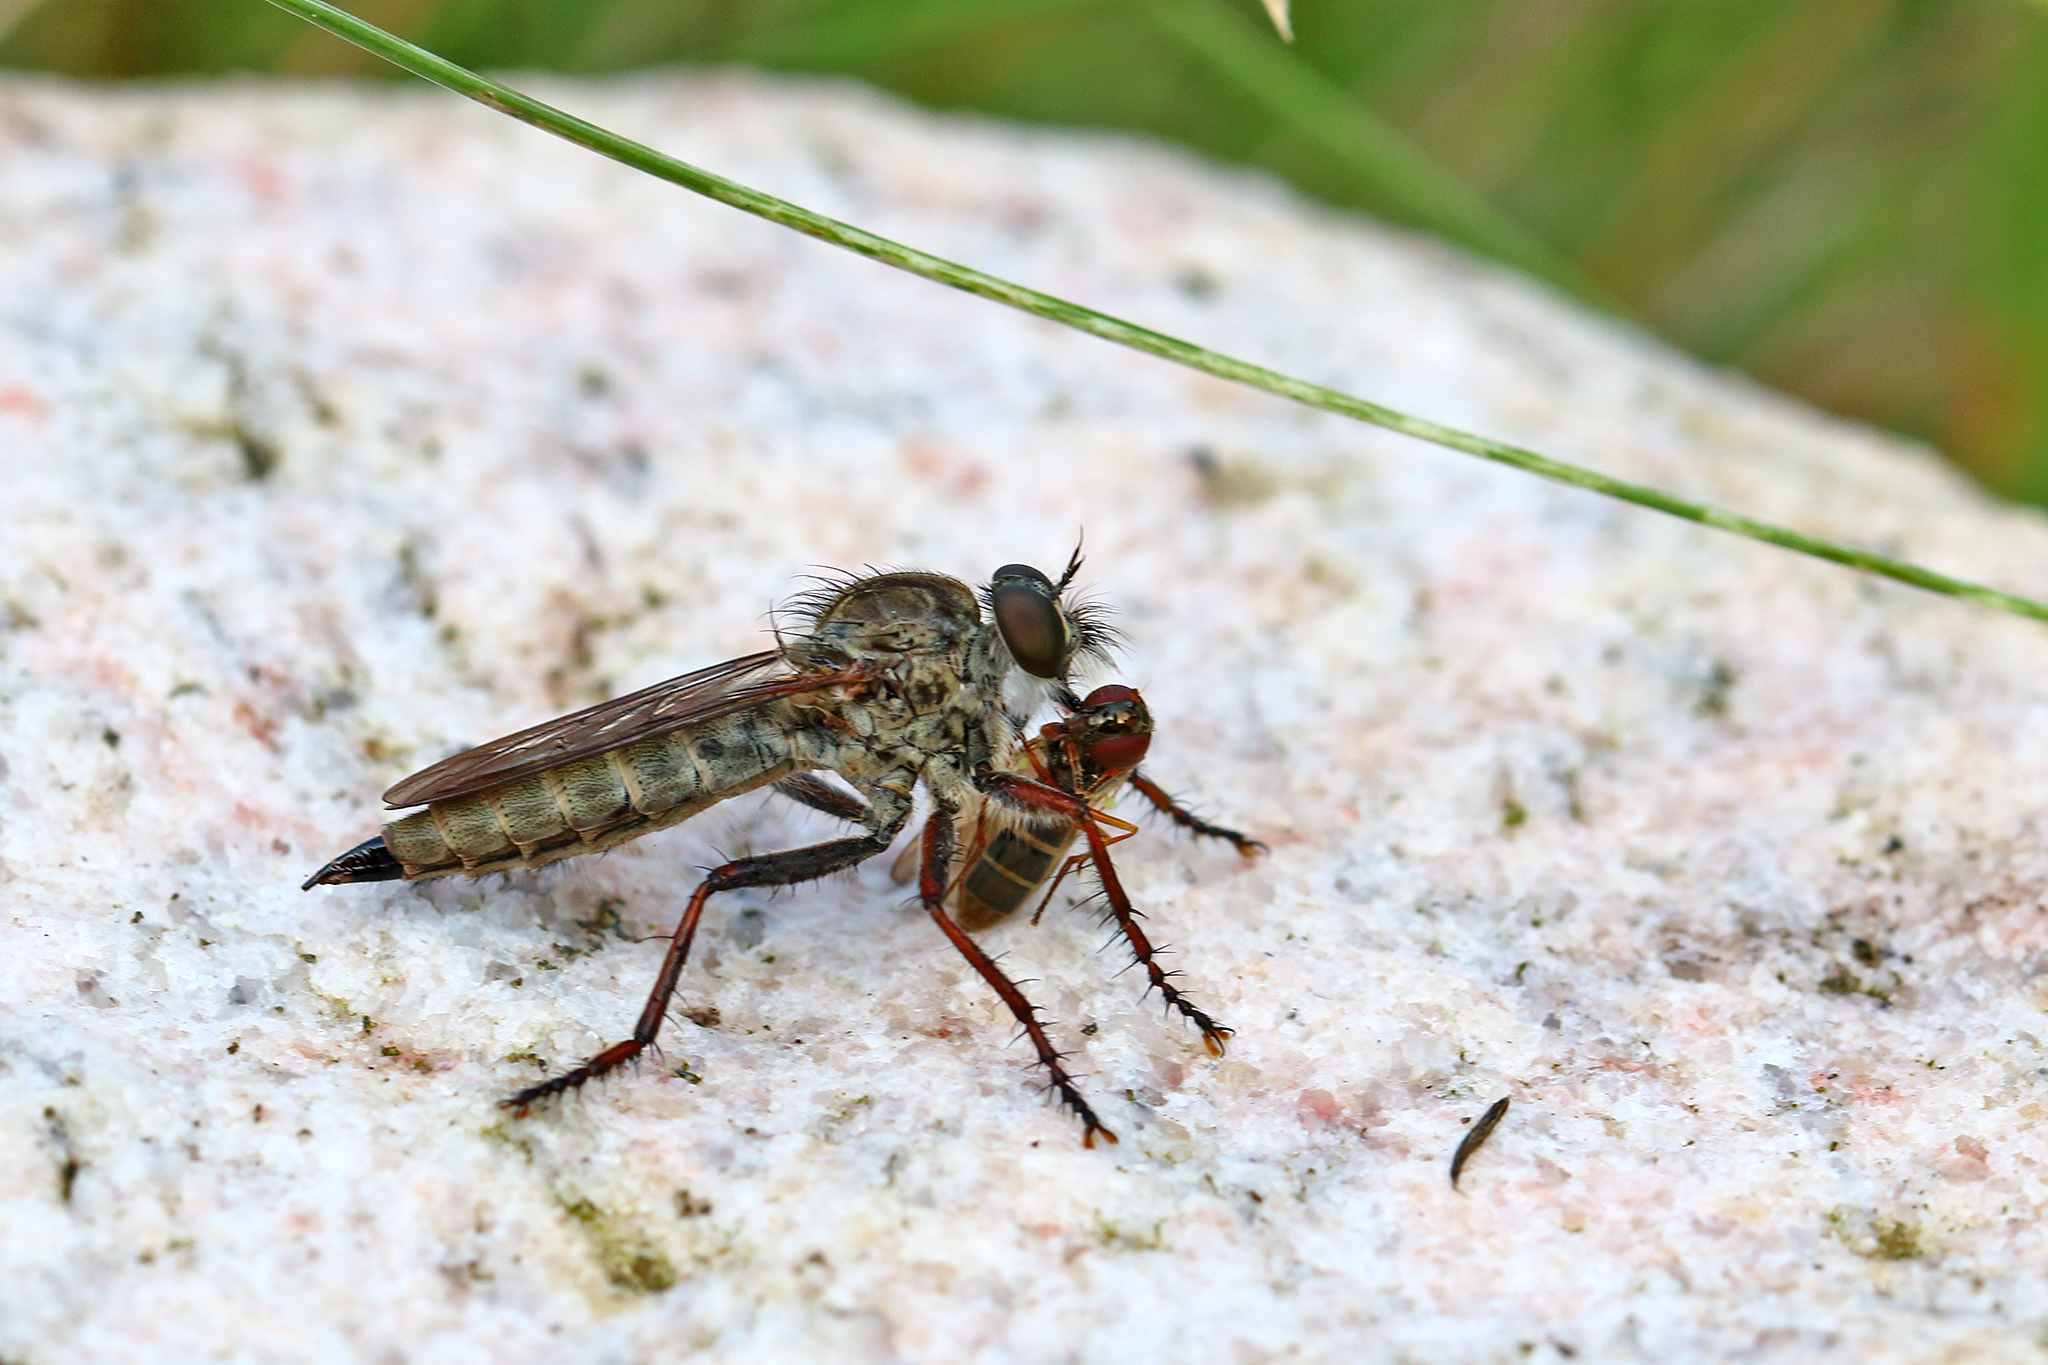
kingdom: Animalia
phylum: Arthropoda
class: Insecta
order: Diptera
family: Asilidae
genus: Machimus
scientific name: Machimus atricapillus
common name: Kite-tailed robberfly
